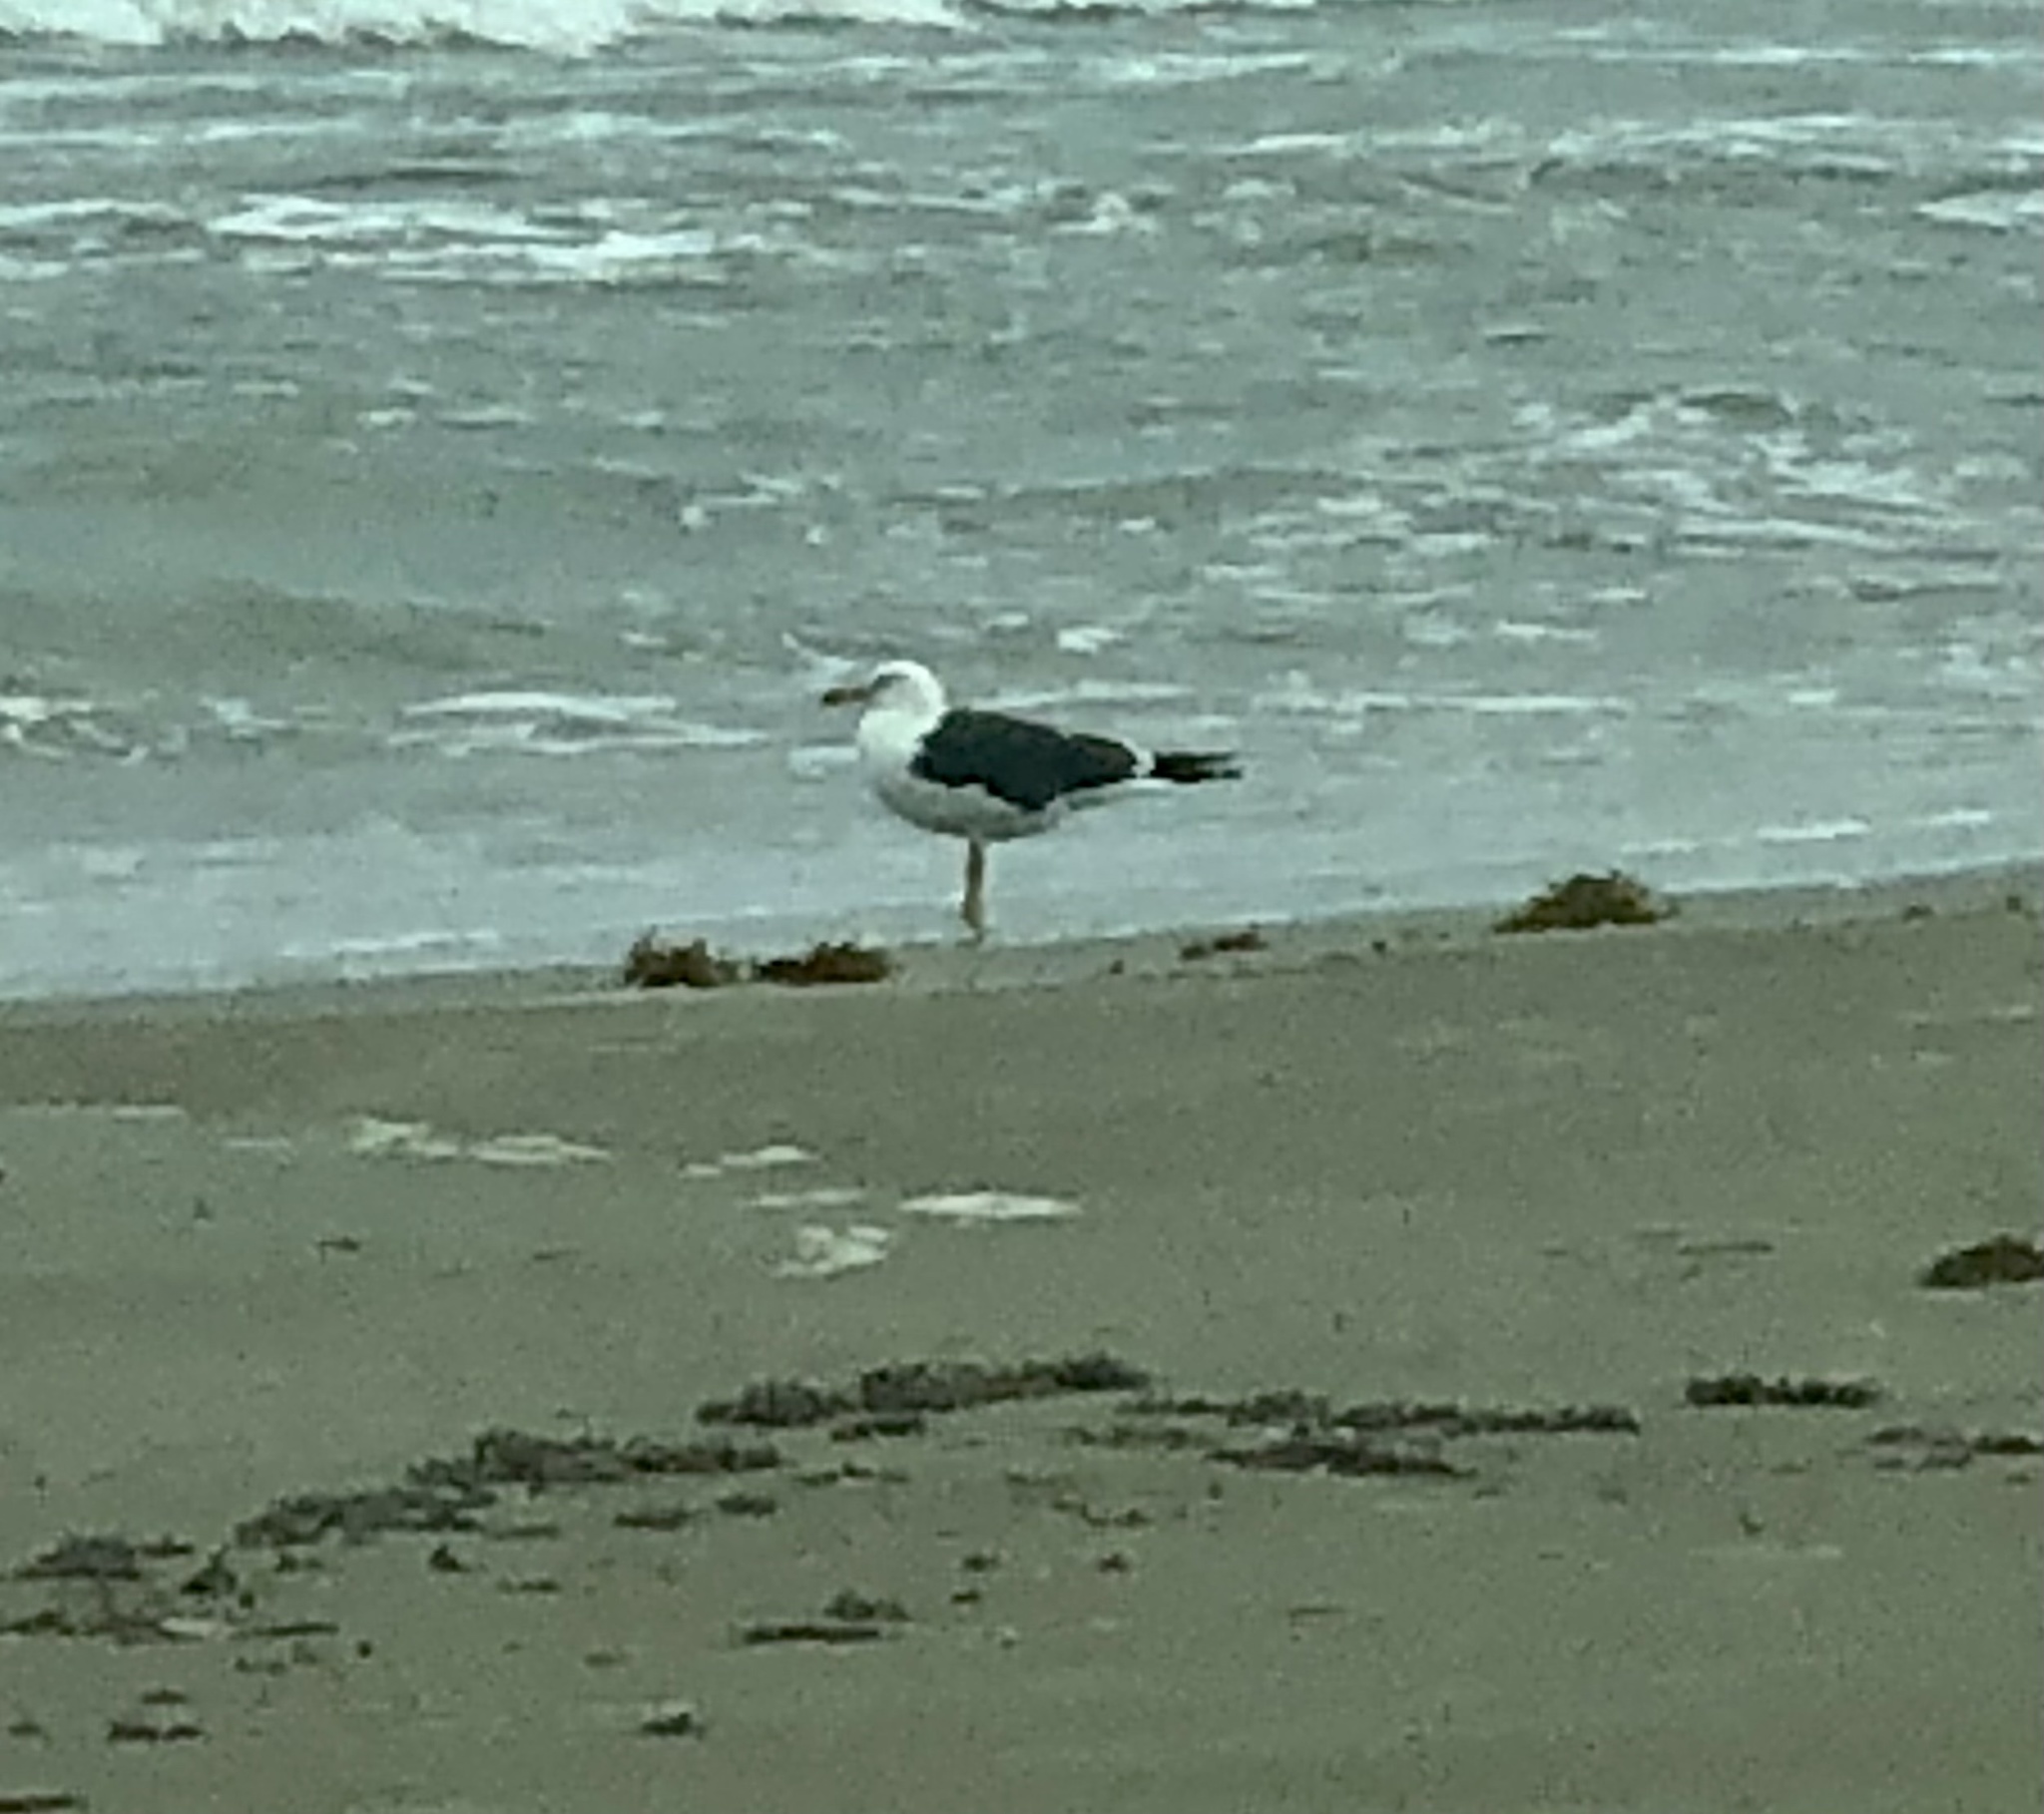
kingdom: Animalia
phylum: Chordata
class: Aves
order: Charadriiformes
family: Laridae
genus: Larus
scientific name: Larus fuscus
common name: Lesser black-backed gull
